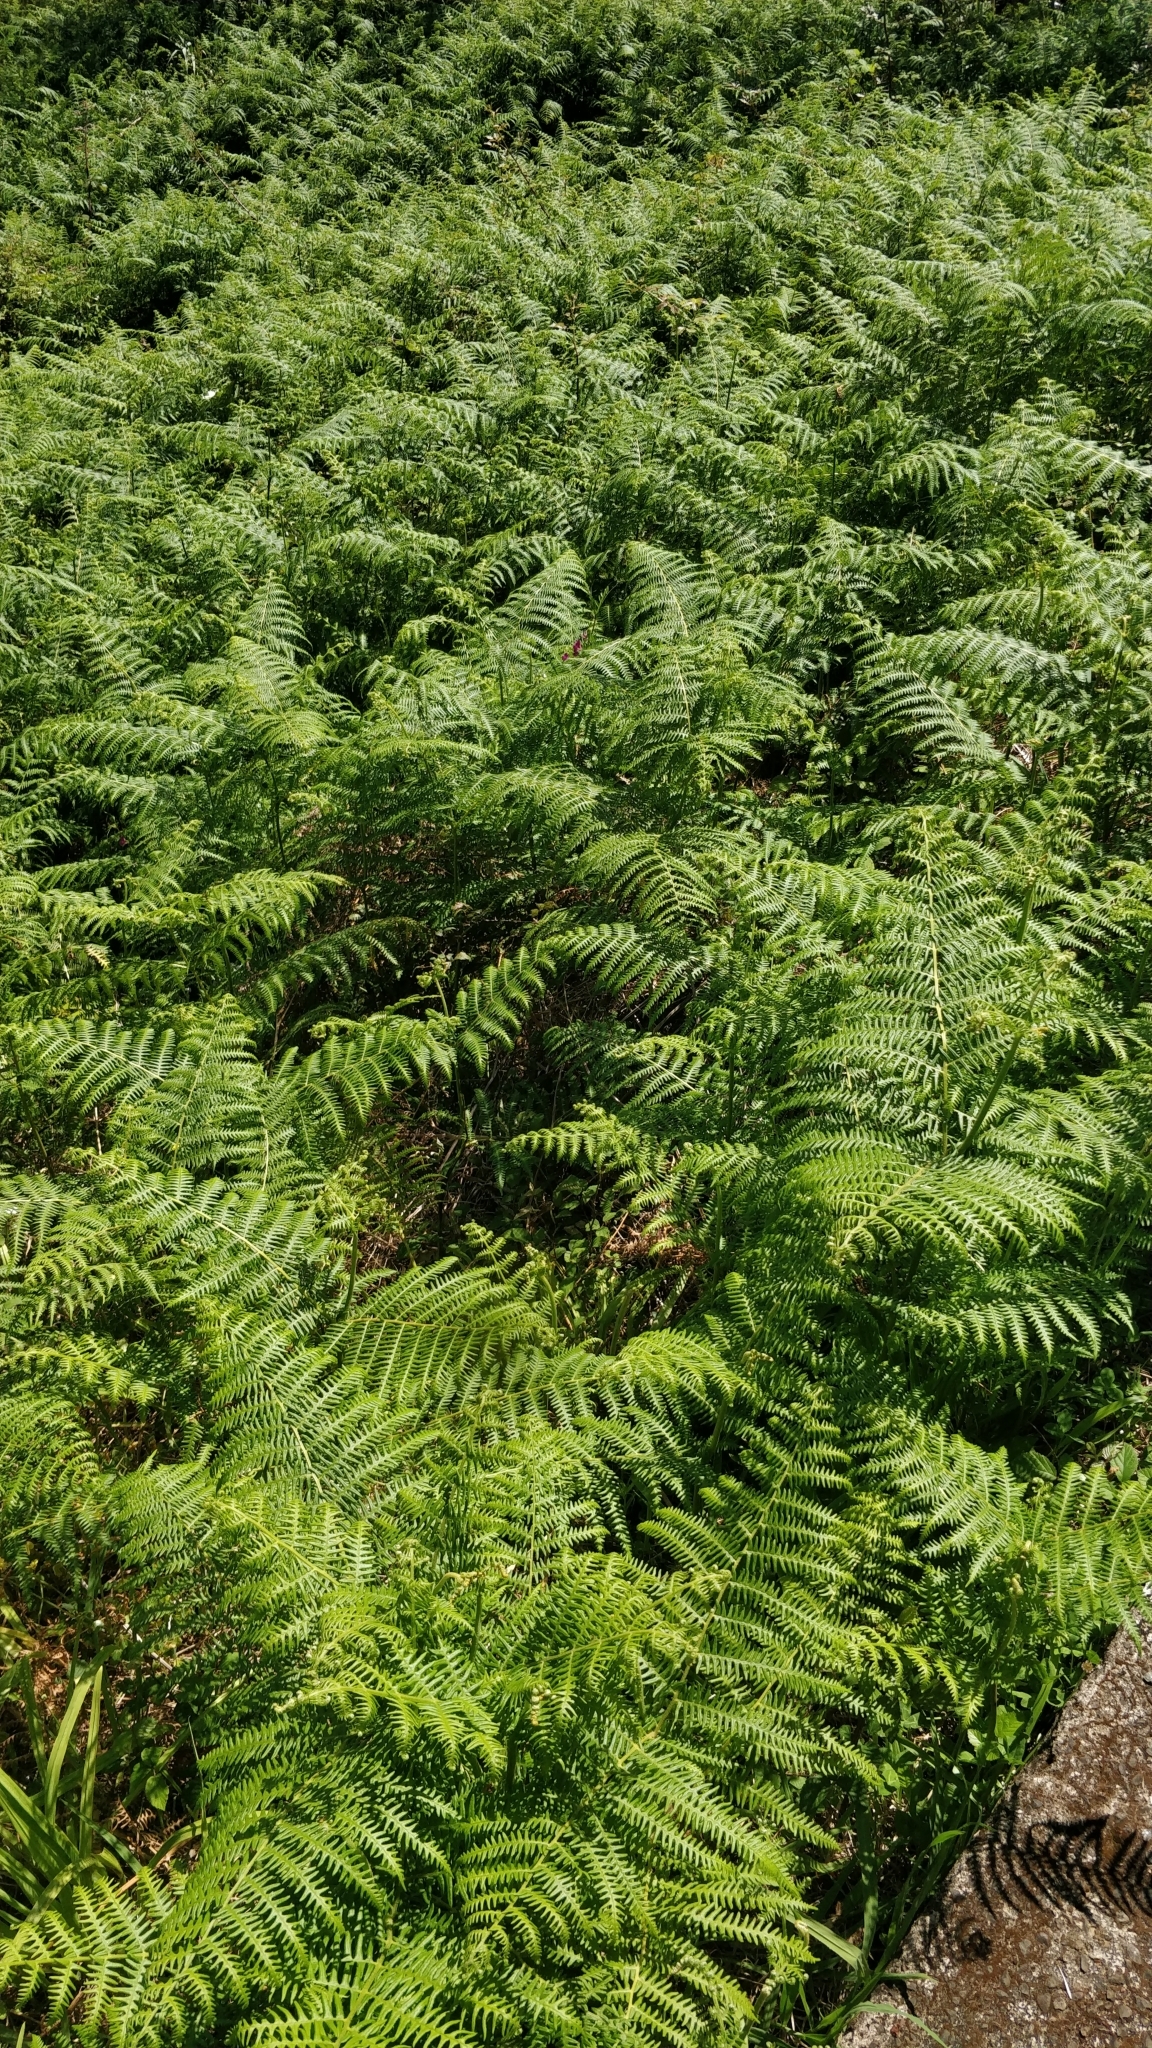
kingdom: Plantae
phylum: Tracheophyta
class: Polypodiopsida
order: Polypodiales
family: Dennstaedtiaceae
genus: Pteridium
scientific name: Pteridium aquilinum
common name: Bracken
